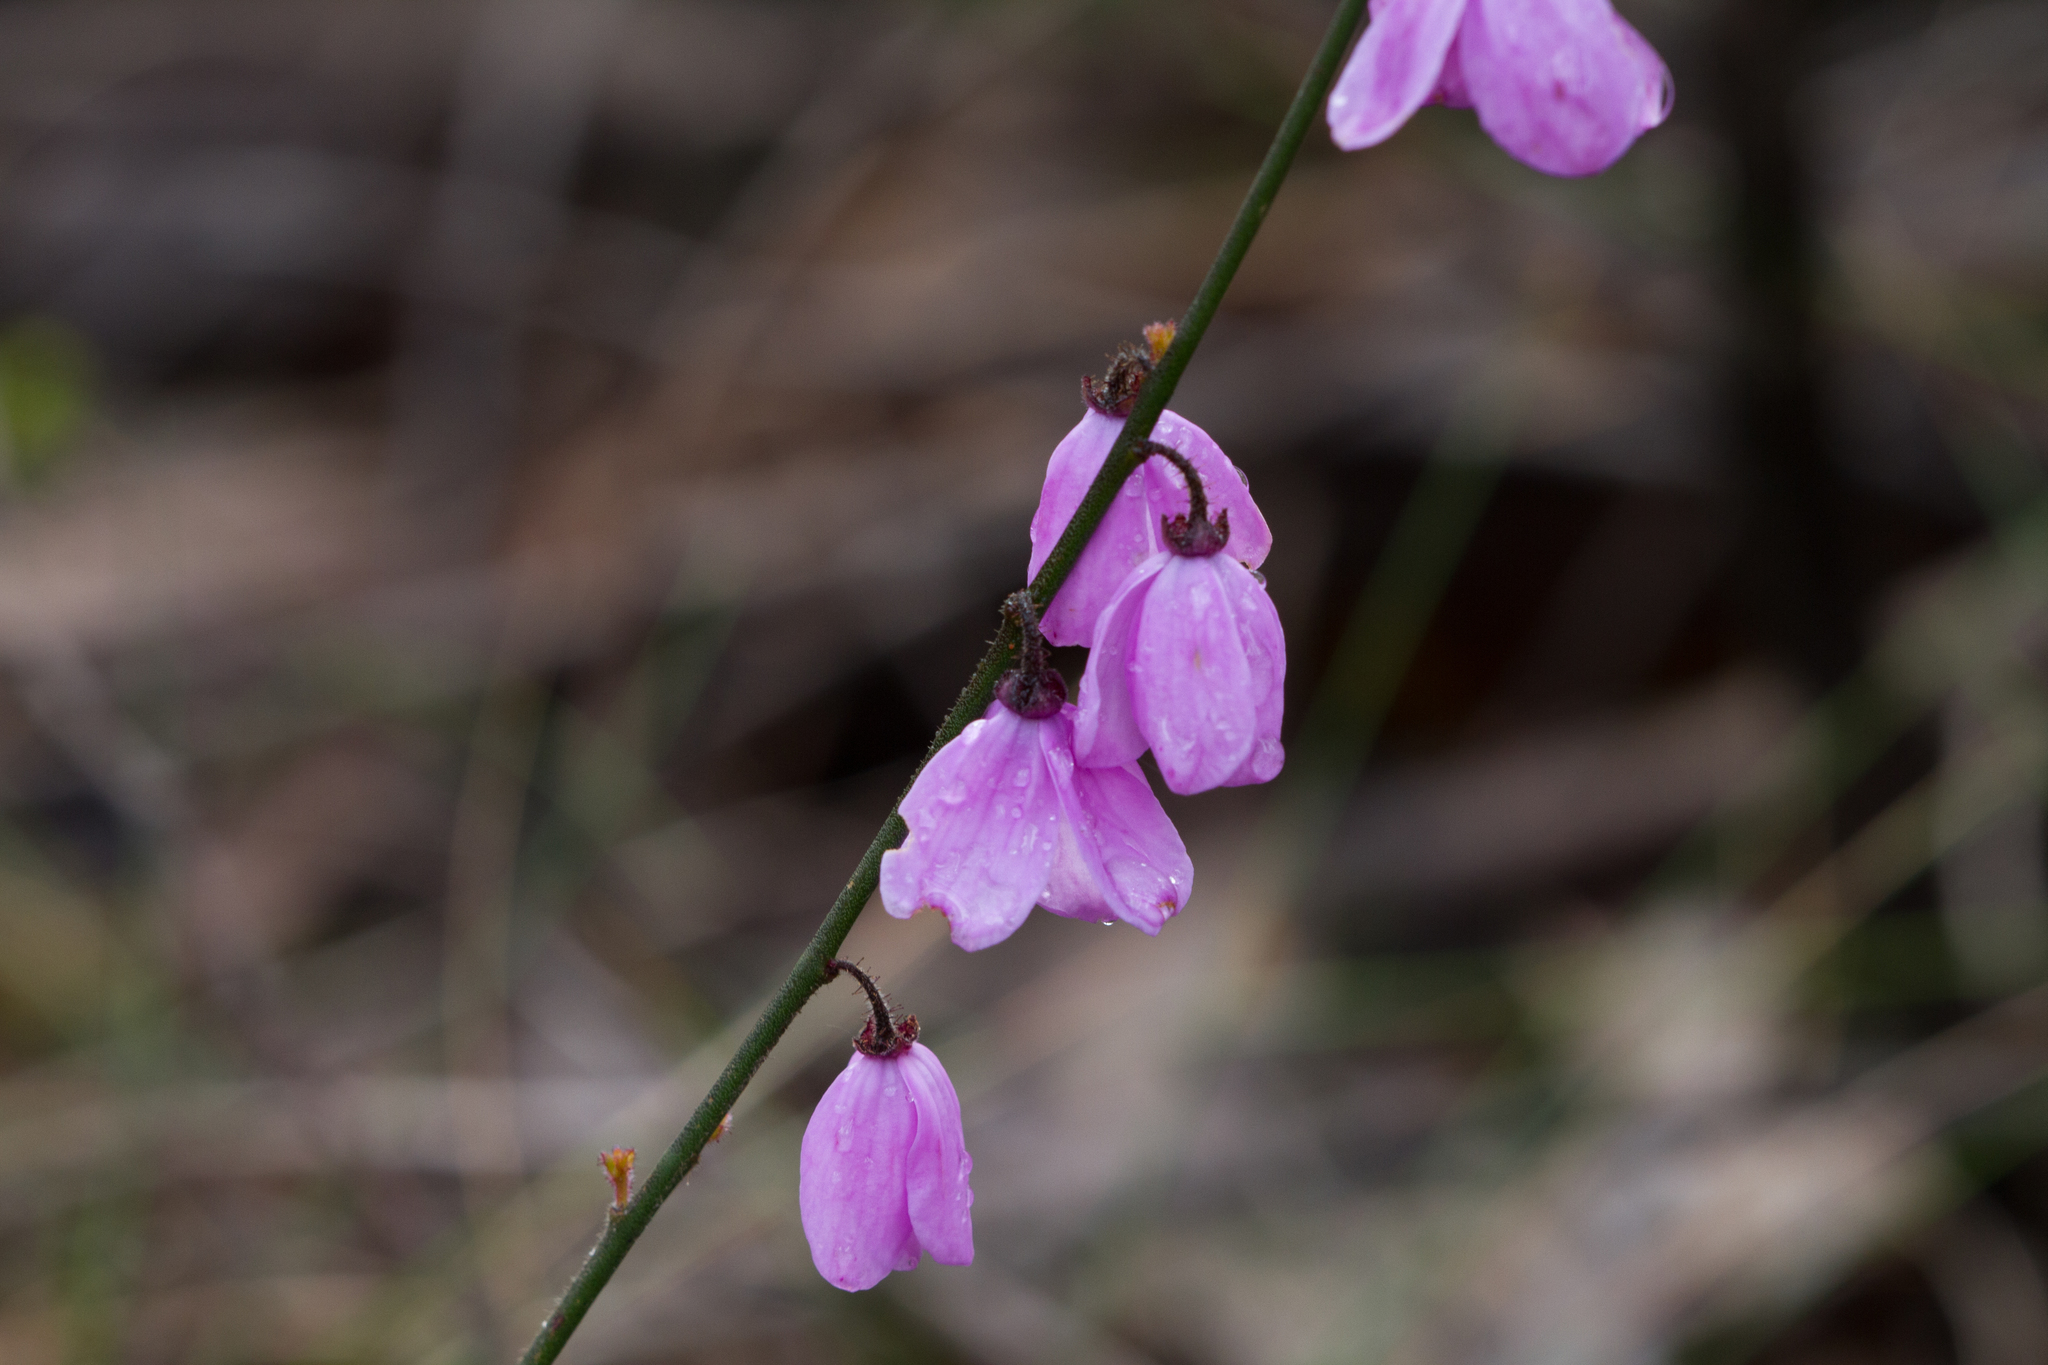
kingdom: Plantae
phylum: Tracheophyta
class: Magnoliopsida
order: Oxalidales
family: Elaeocarpaceae
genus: Tetratheca
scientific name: Tetratheca ciliata
